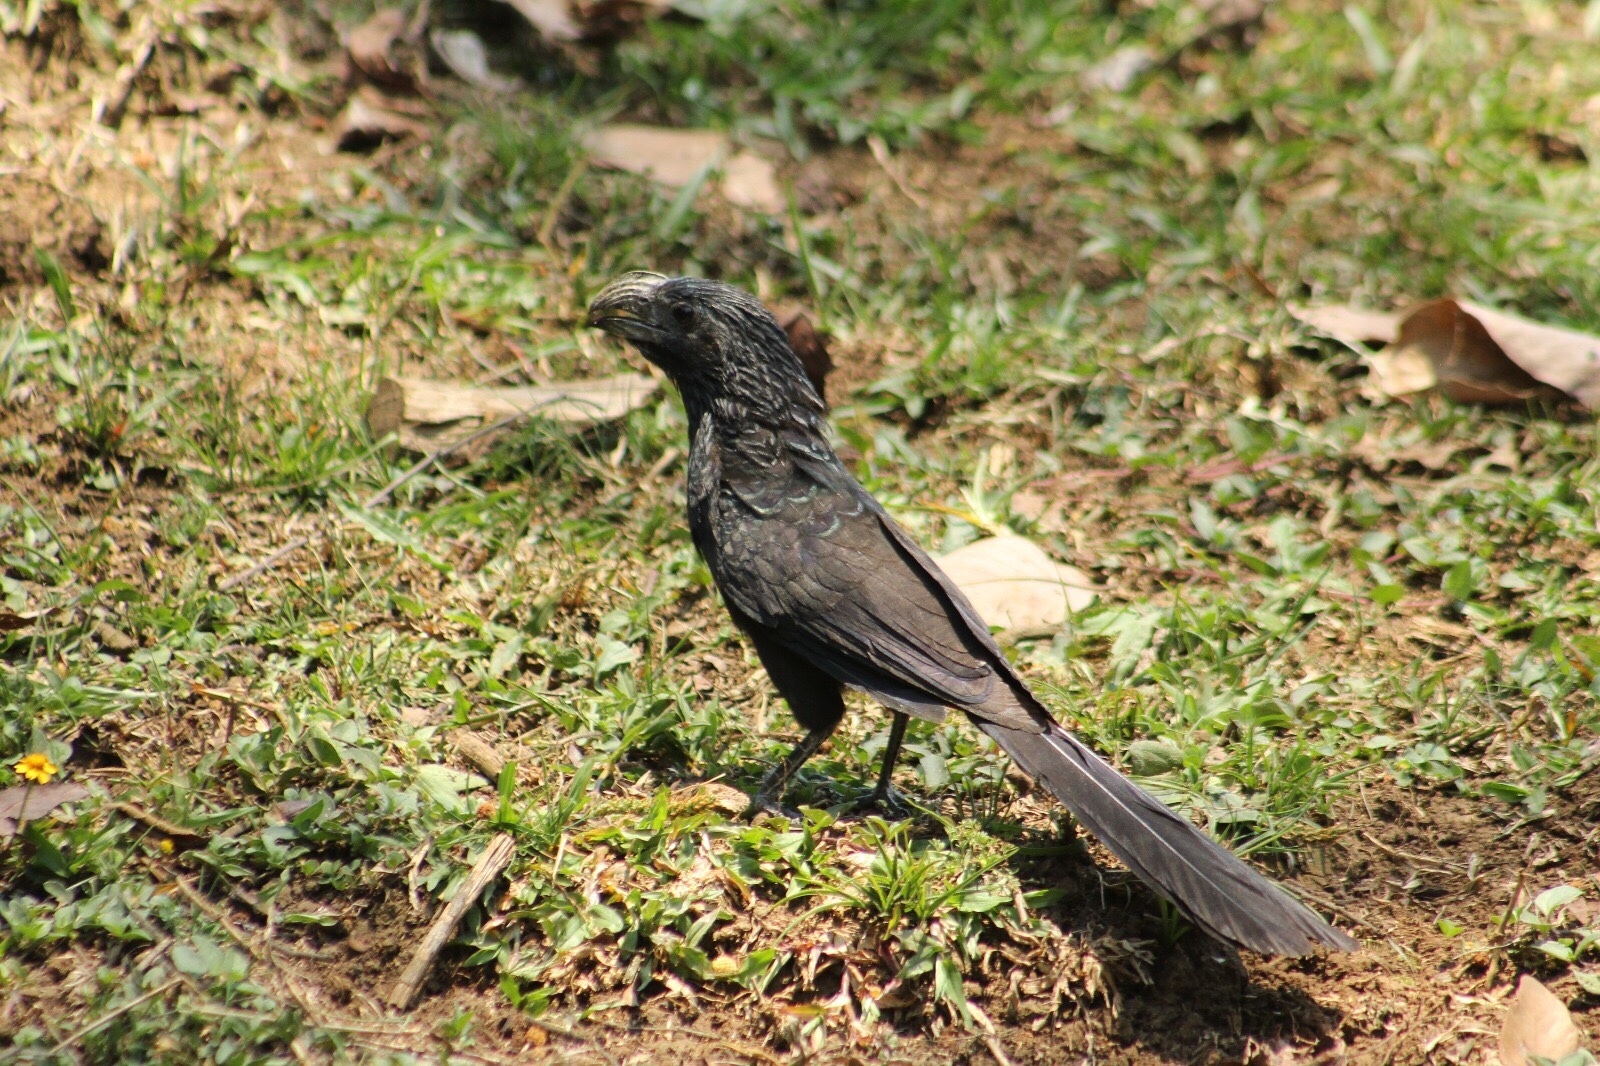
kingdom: Animalia
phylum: Chordata
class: Aves
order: Cuculiformes
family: Cuculidae
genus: Crotophaga
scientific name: Crotophaga sulcirostris
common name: Groove-billed ani
